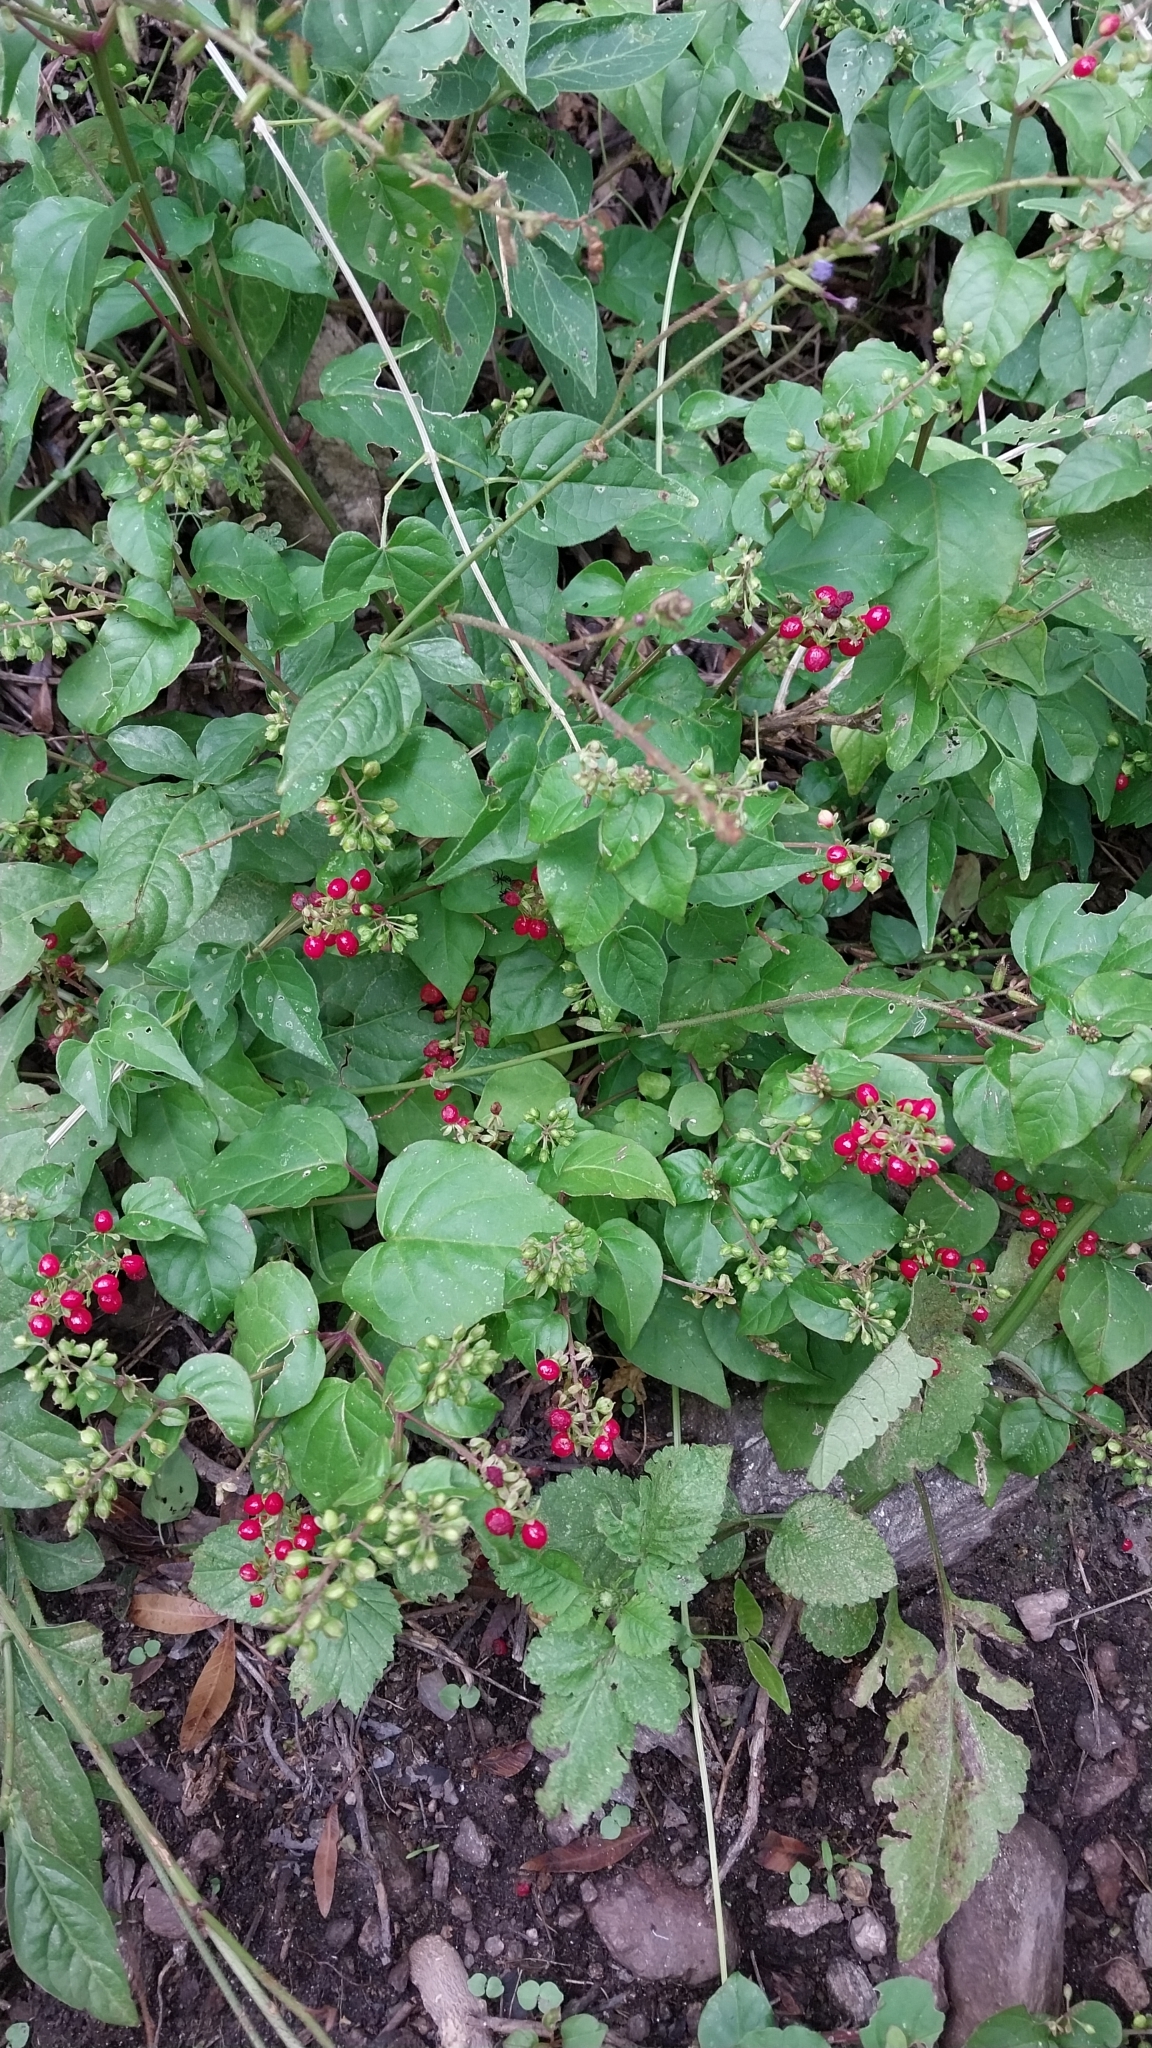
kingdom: Plantae
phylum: Tracheophyta
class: Magnoliopsida
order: Caryophyllales
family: Phytolaccaceae
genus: Rivina
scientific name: Rivina humilis
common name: Rougeplant
